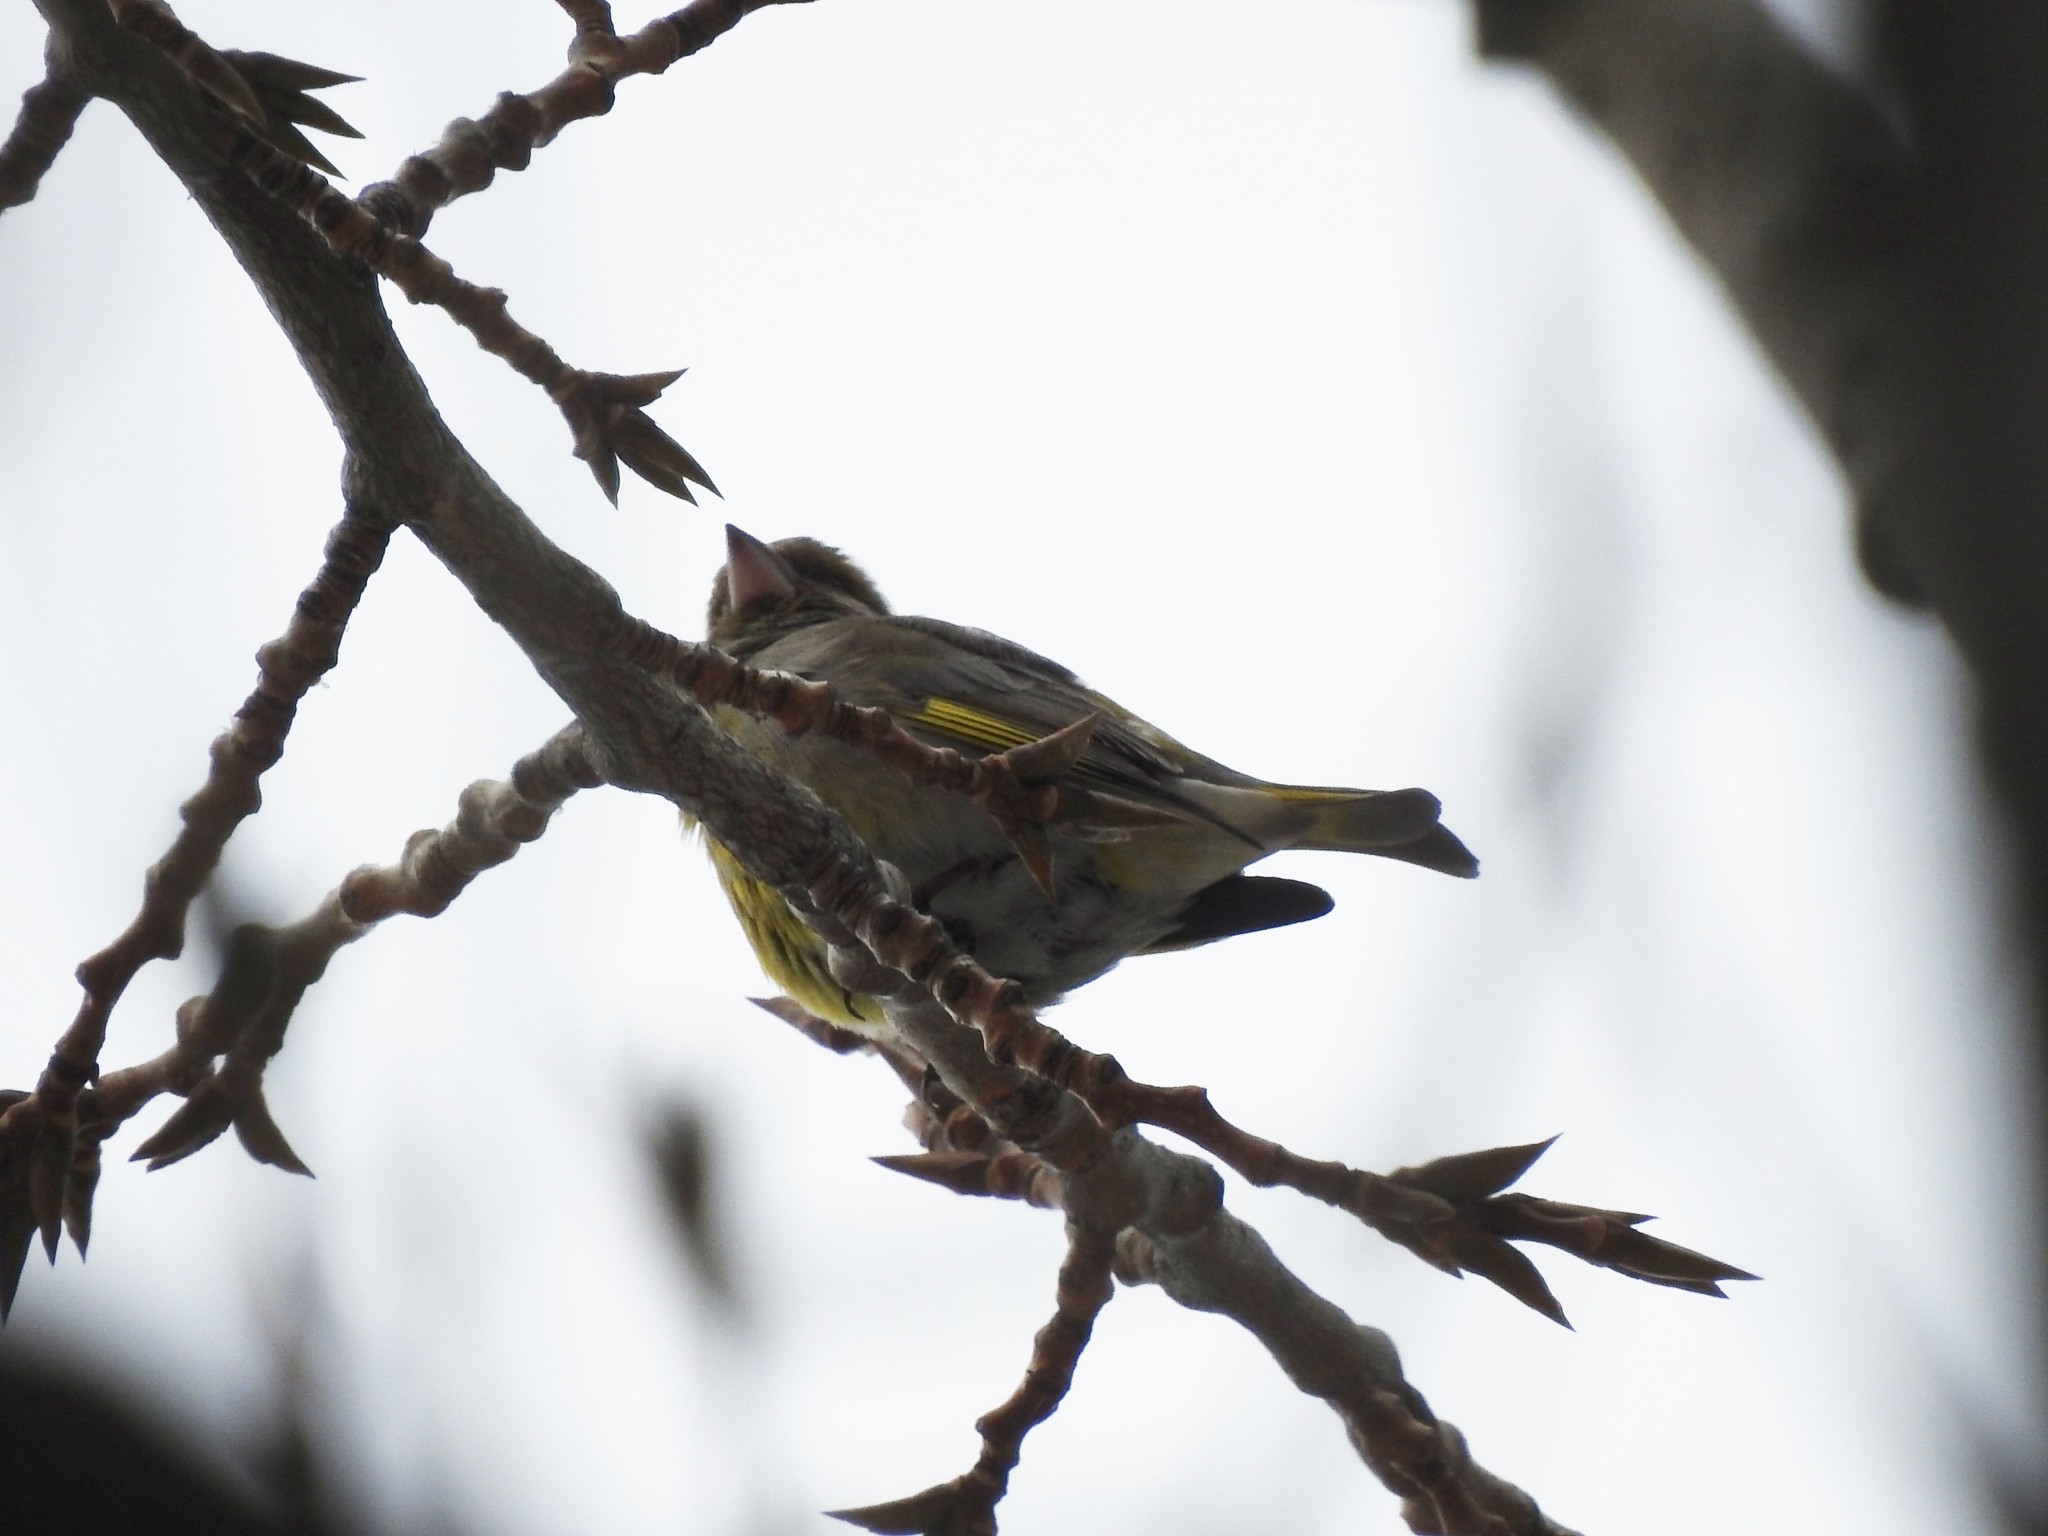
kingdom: Plantae
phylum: Tracheophyta
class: Liliopsida
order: Poales
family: Poaceae
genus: Chloris
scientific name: Chloris chloris
